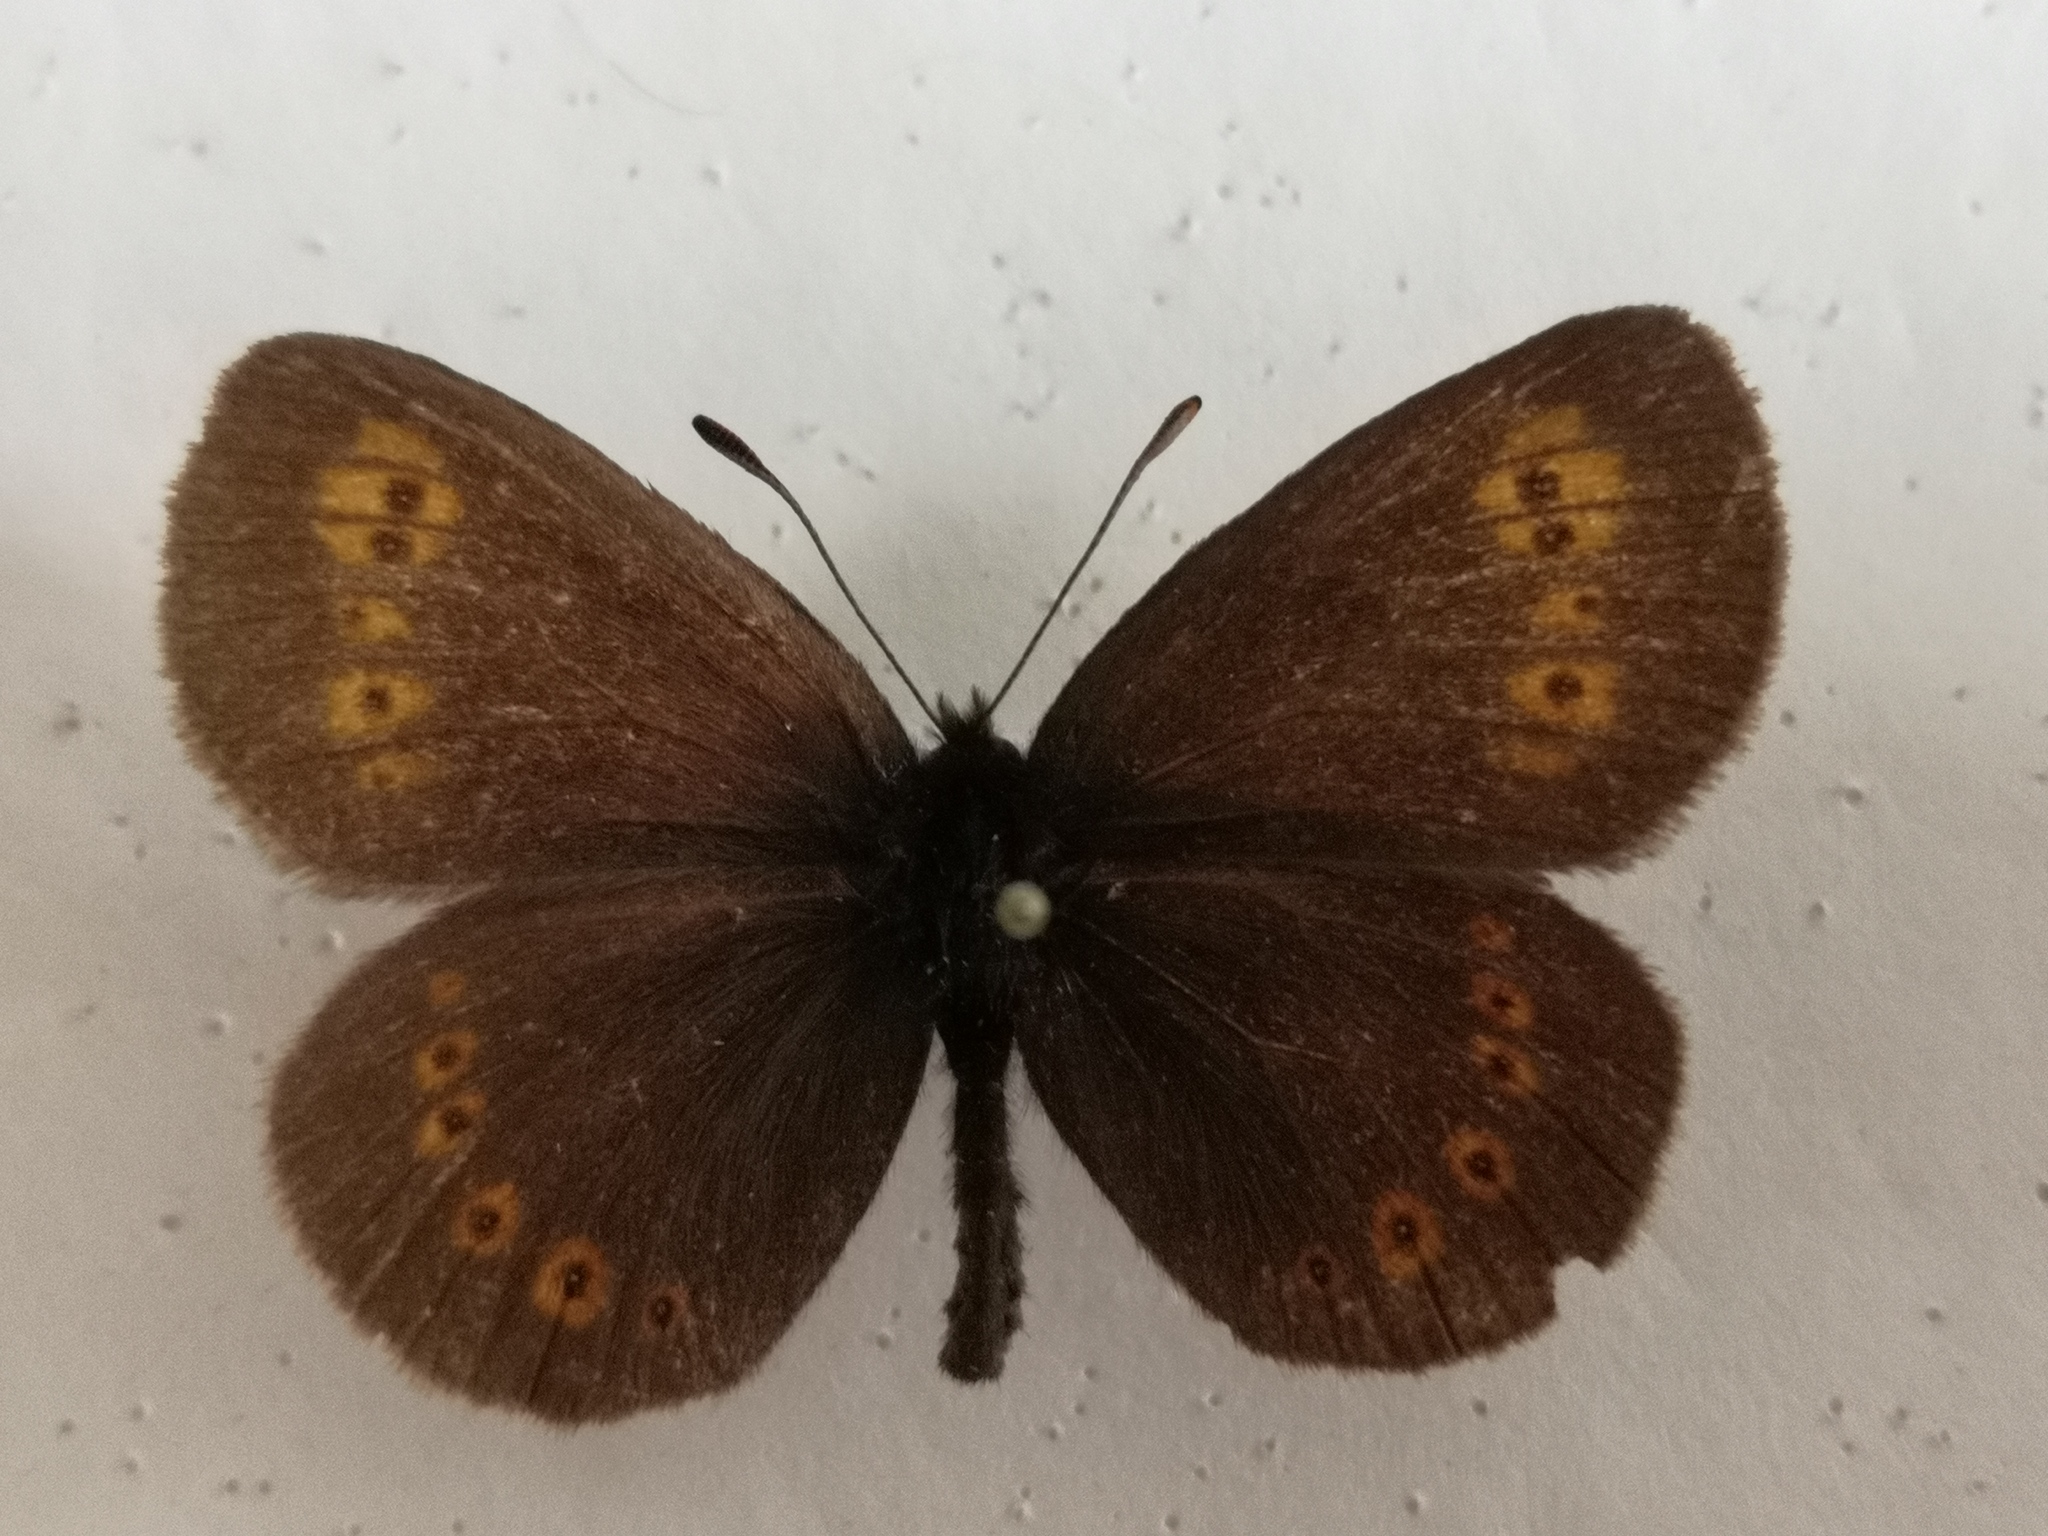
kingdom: Animalia
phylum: Arthropoda
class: Insecta
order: Lepidoptera
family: Nymphalidae
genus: Erebia
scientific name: Erebia alberganus
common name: Almond-eyed ringlet
